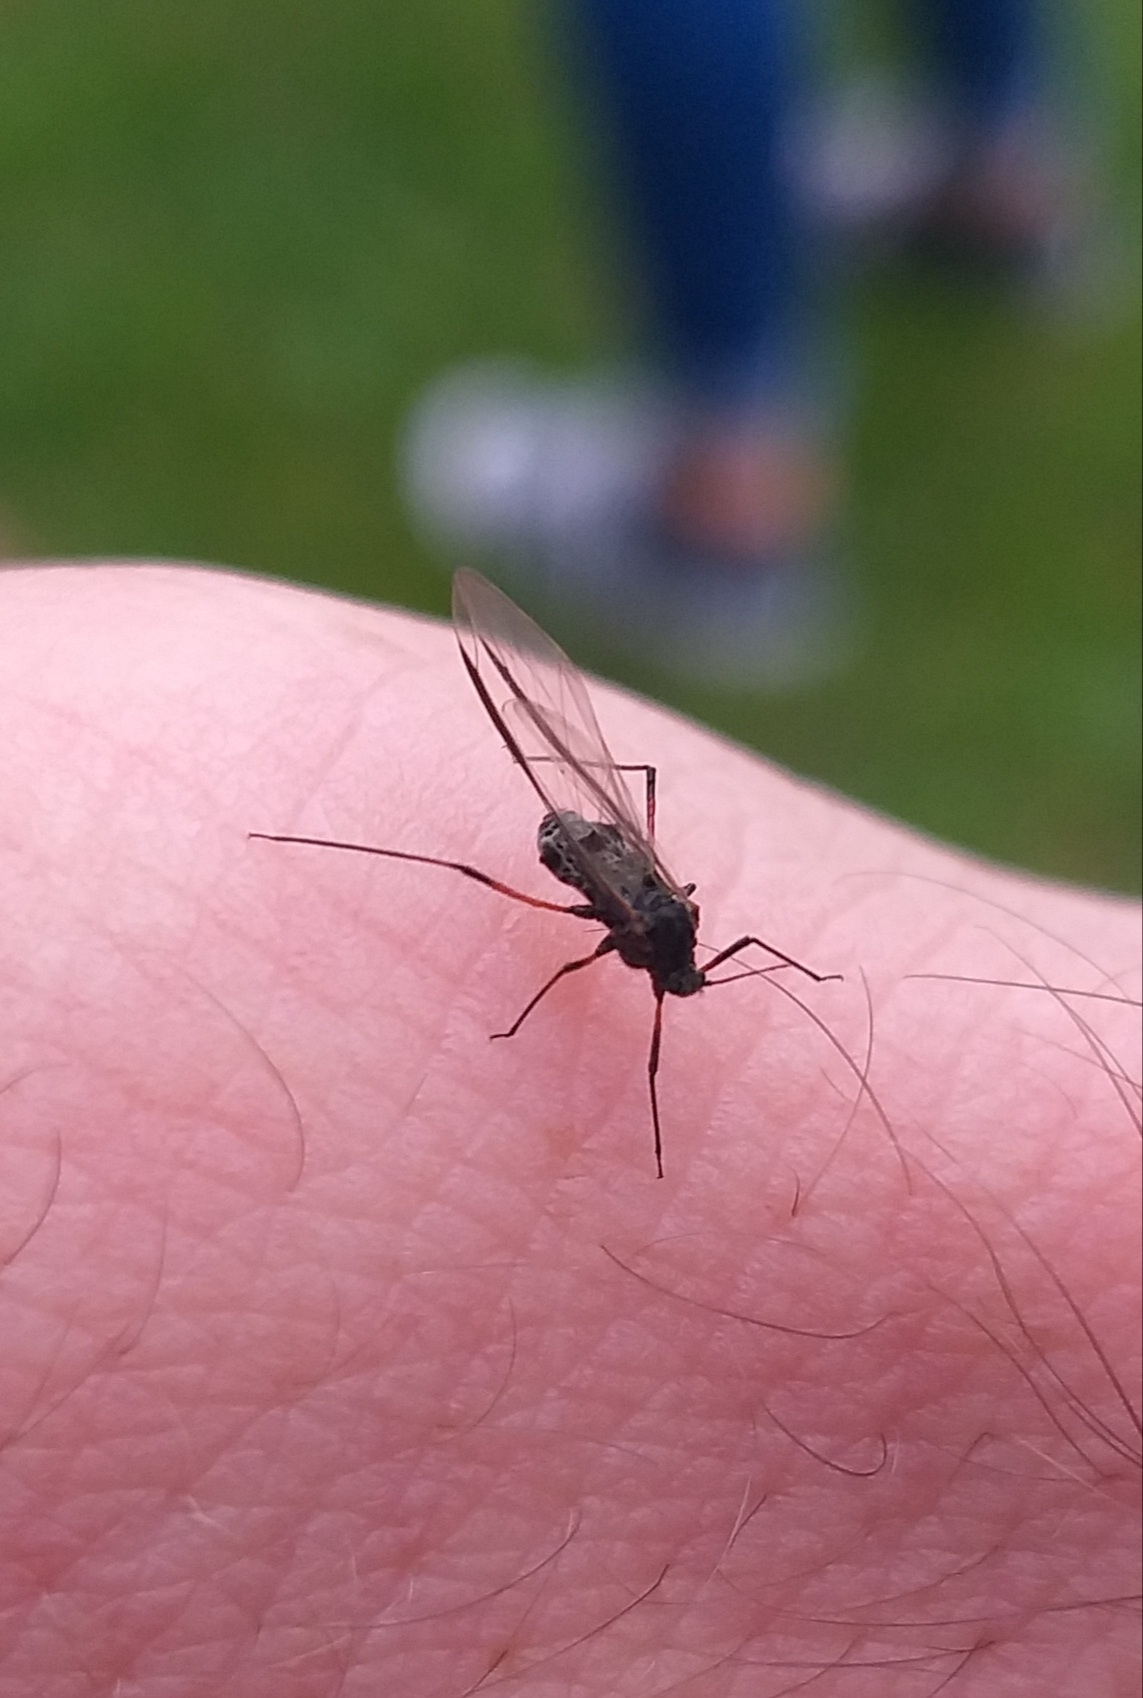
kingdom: Animalia
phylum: Arthropoda
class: Insecta
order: Hemiptera
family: Aphididae
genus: Tuberolachnus
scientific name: Tuberolachnus salignus
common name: Giant willow aphid
